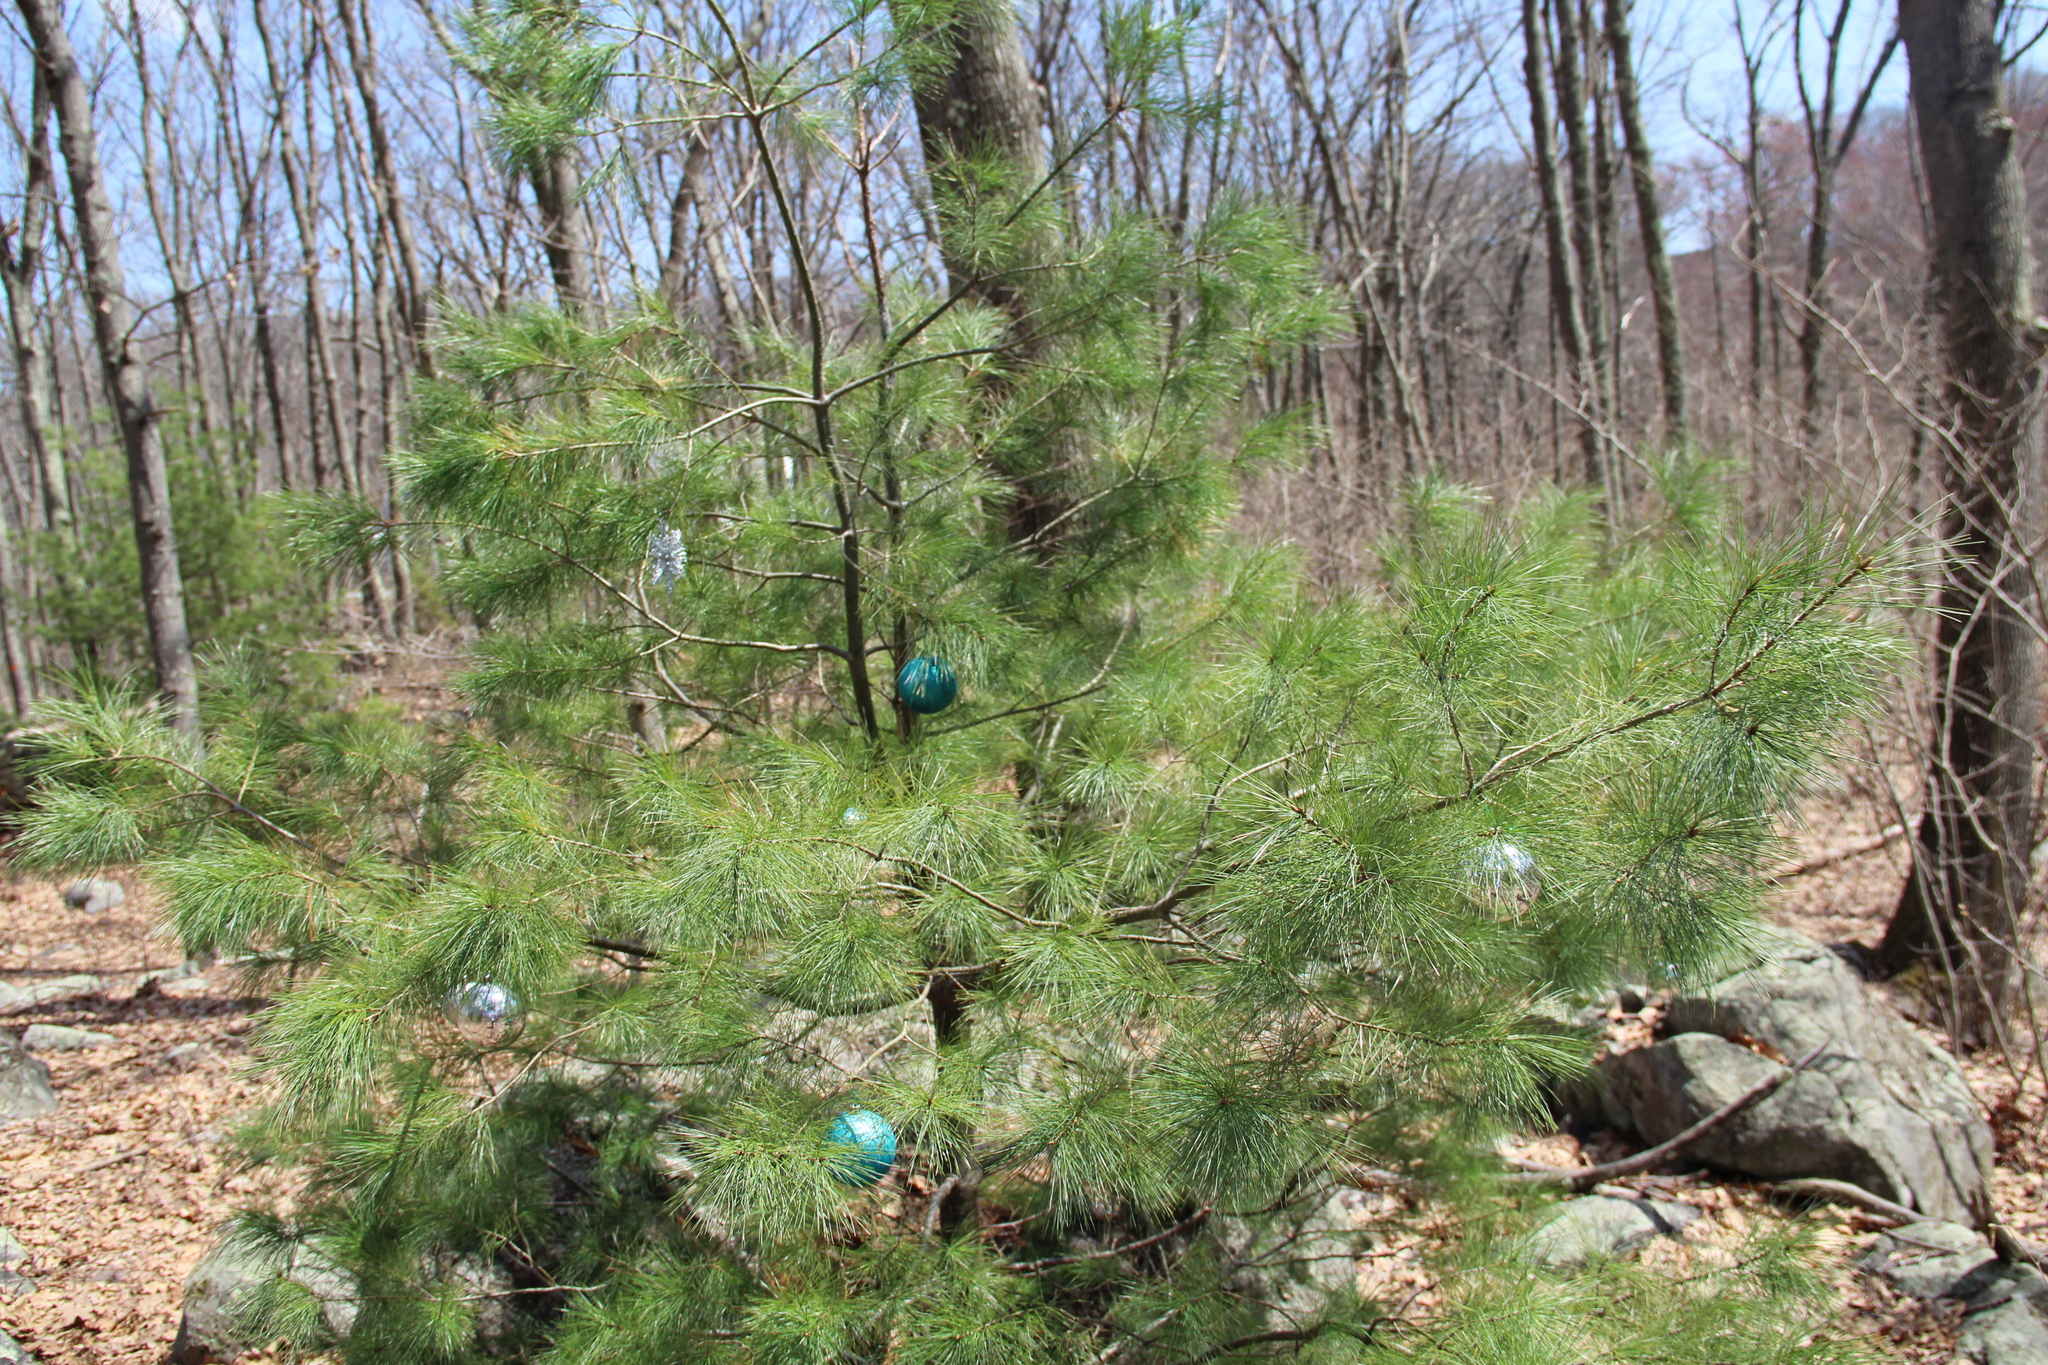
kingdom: Plantae
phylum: Tracheophyta
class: Pinopsida
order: Pinales
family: Pinaceae
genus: Pinus
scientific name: Pinus strobus
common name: Weymouth pine
